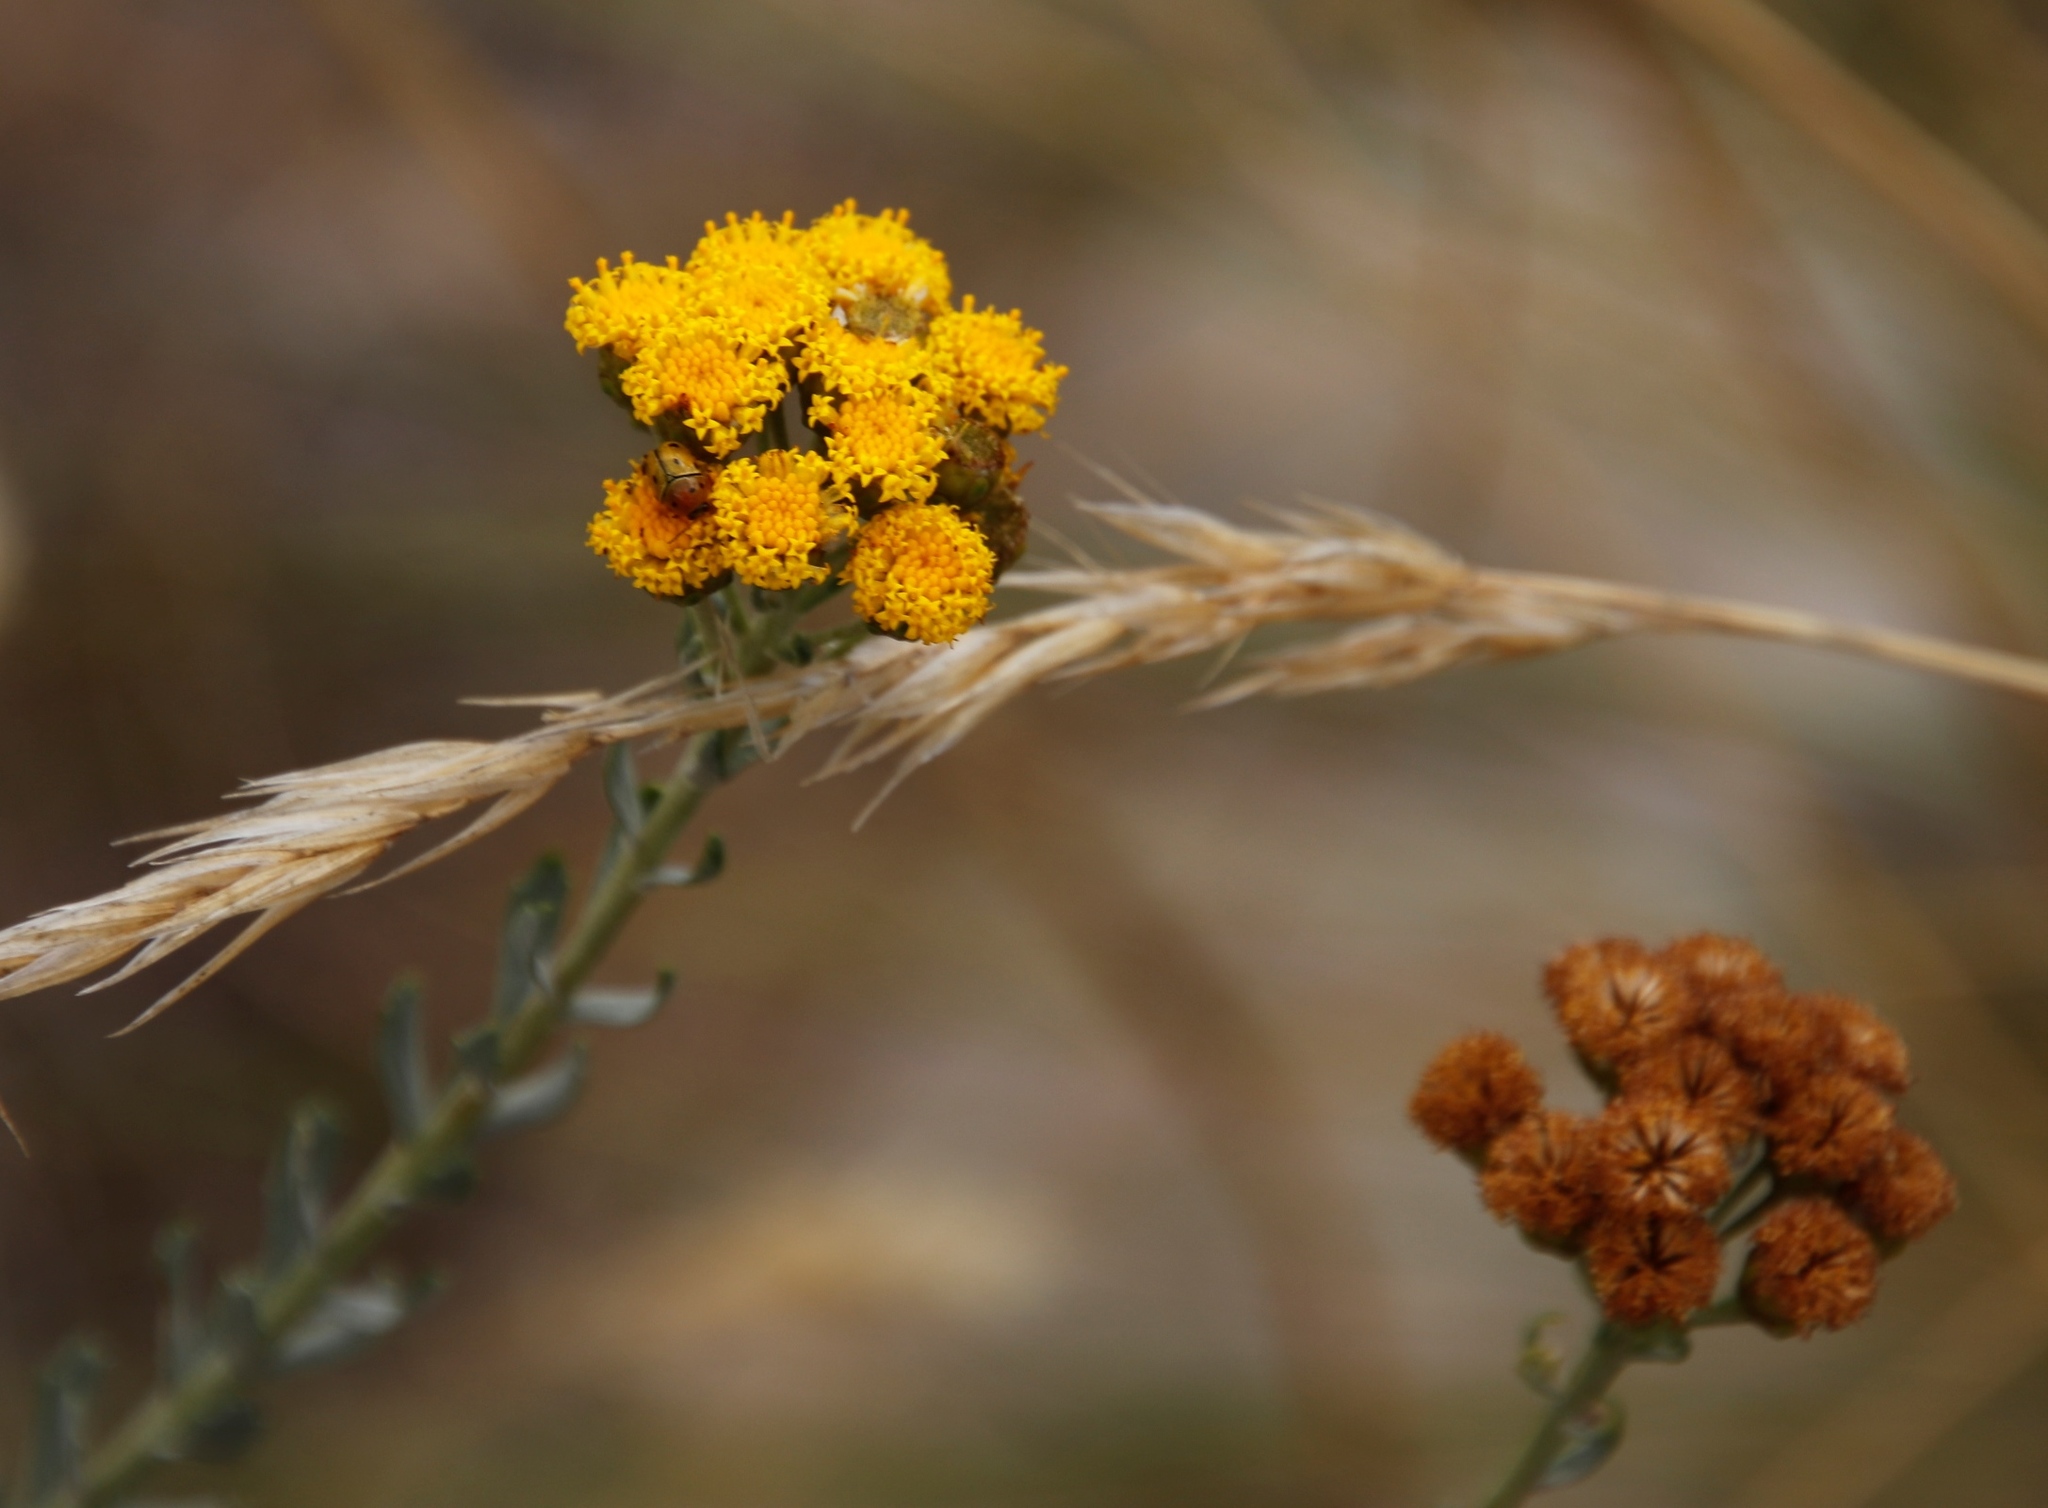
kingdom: Plantae
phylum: Tracheophyta
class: Magnoliopsida
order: Asterales
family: Asteraceae
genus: Athanasia
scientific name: Athanasia trifurcata
